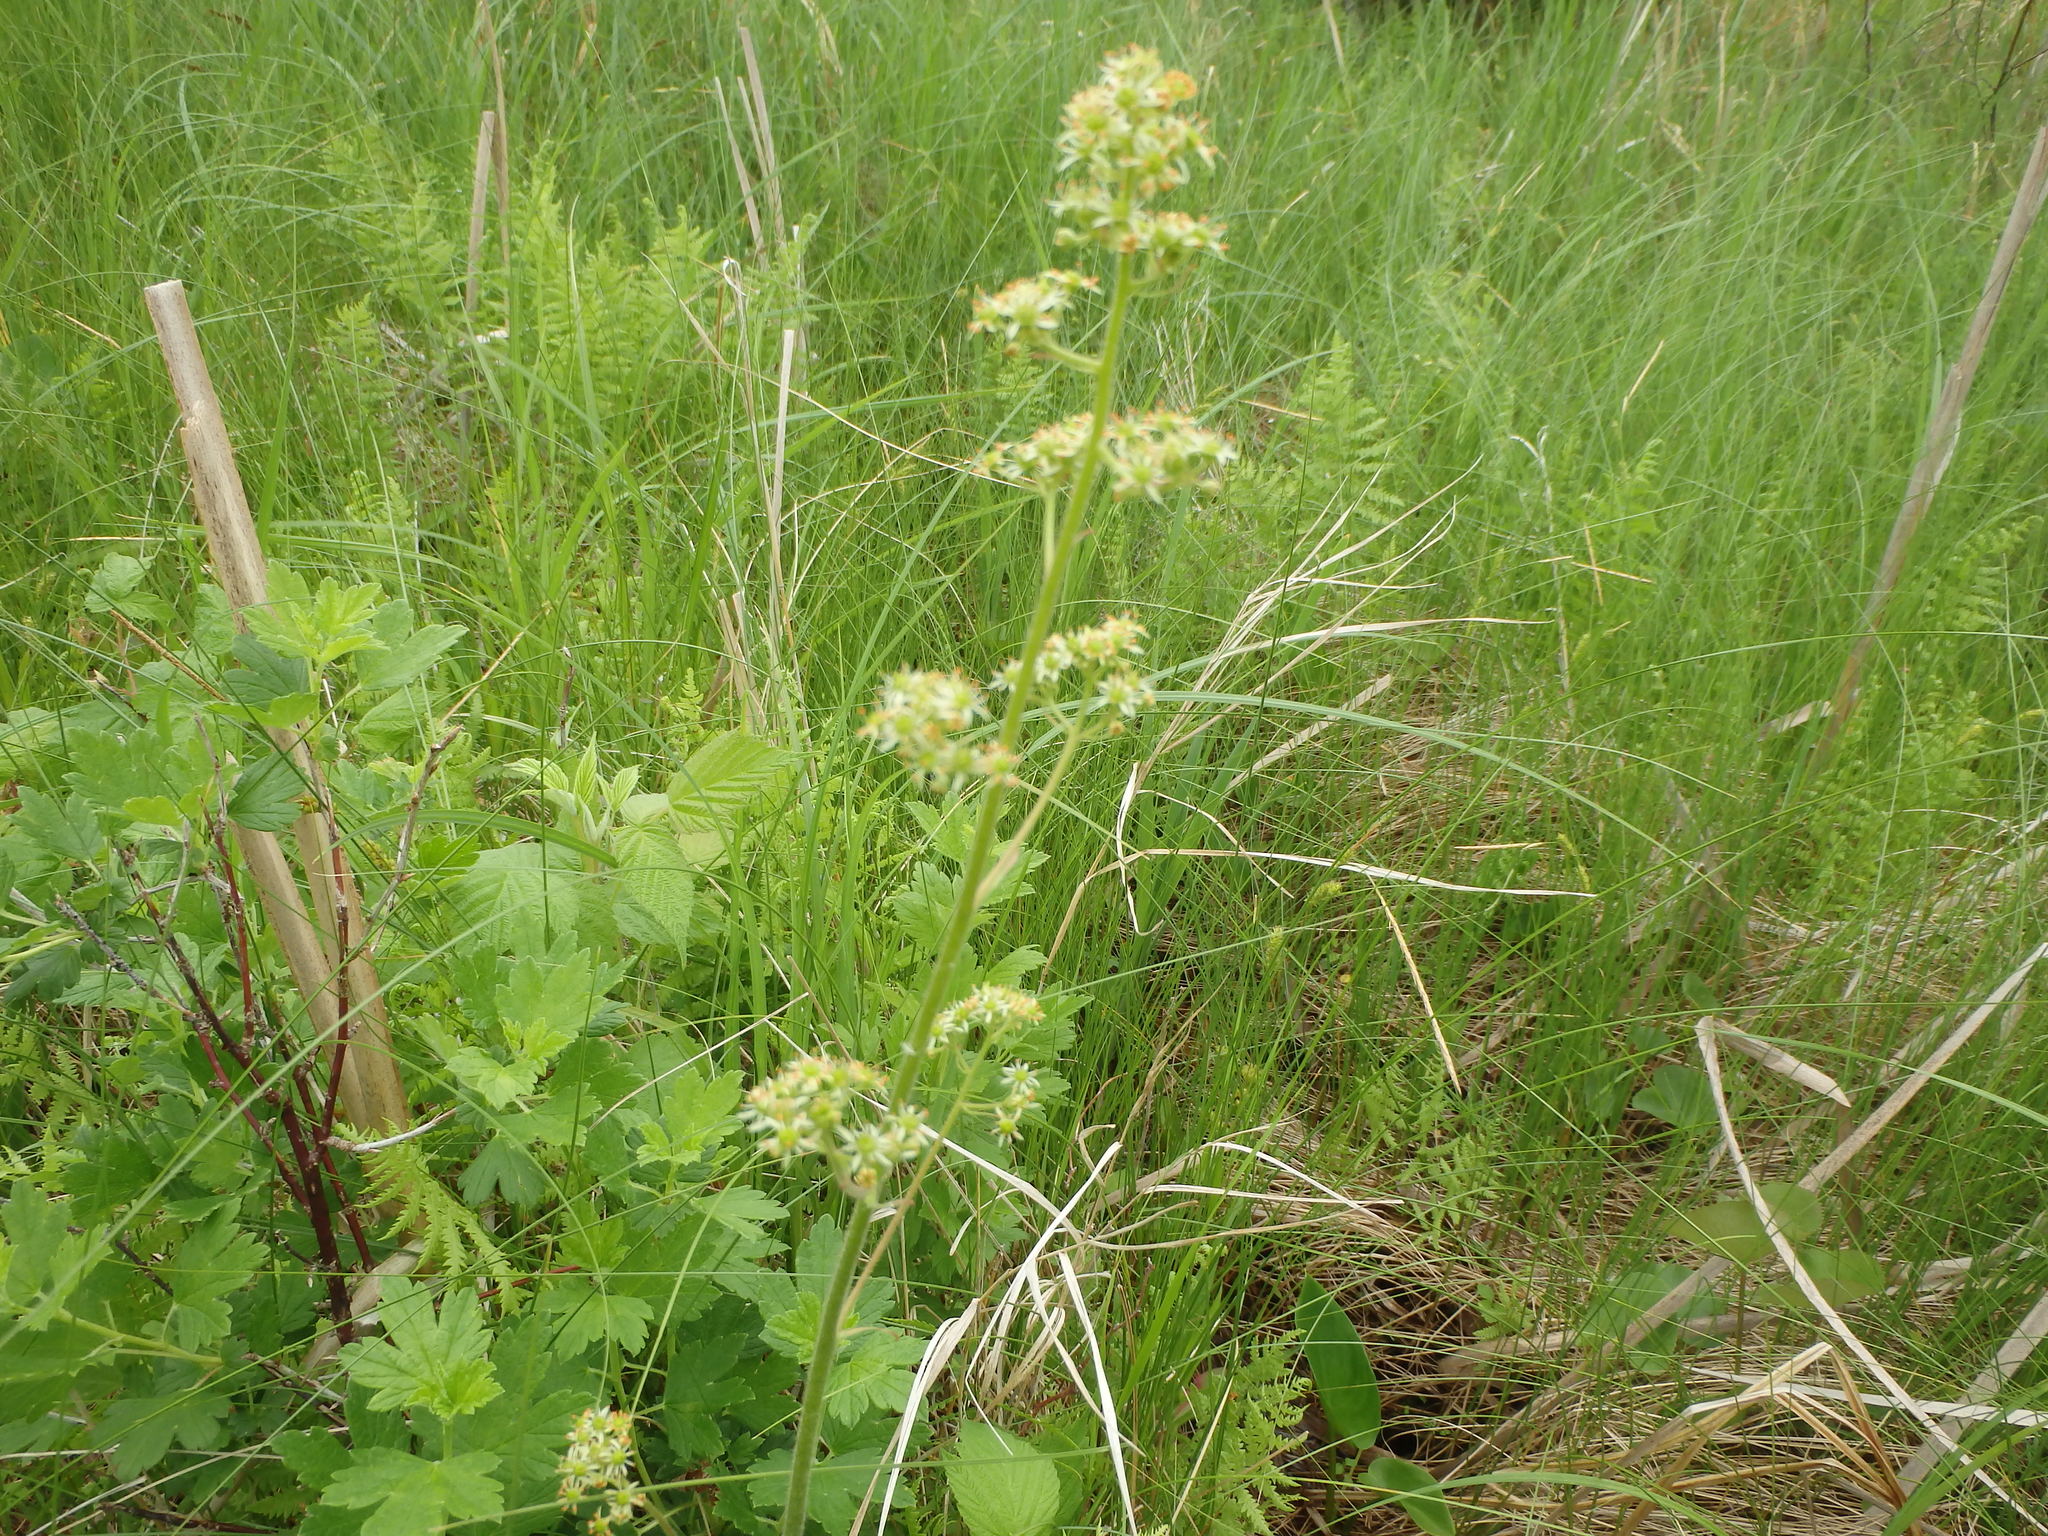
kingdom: Plantae
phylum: Tracheophyta
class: Magnoliopsida
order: Saxifragales
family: Saxifragaceae
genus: Micranthes
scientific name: Micranthes pensylvanica
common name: Marsh saxifrage
